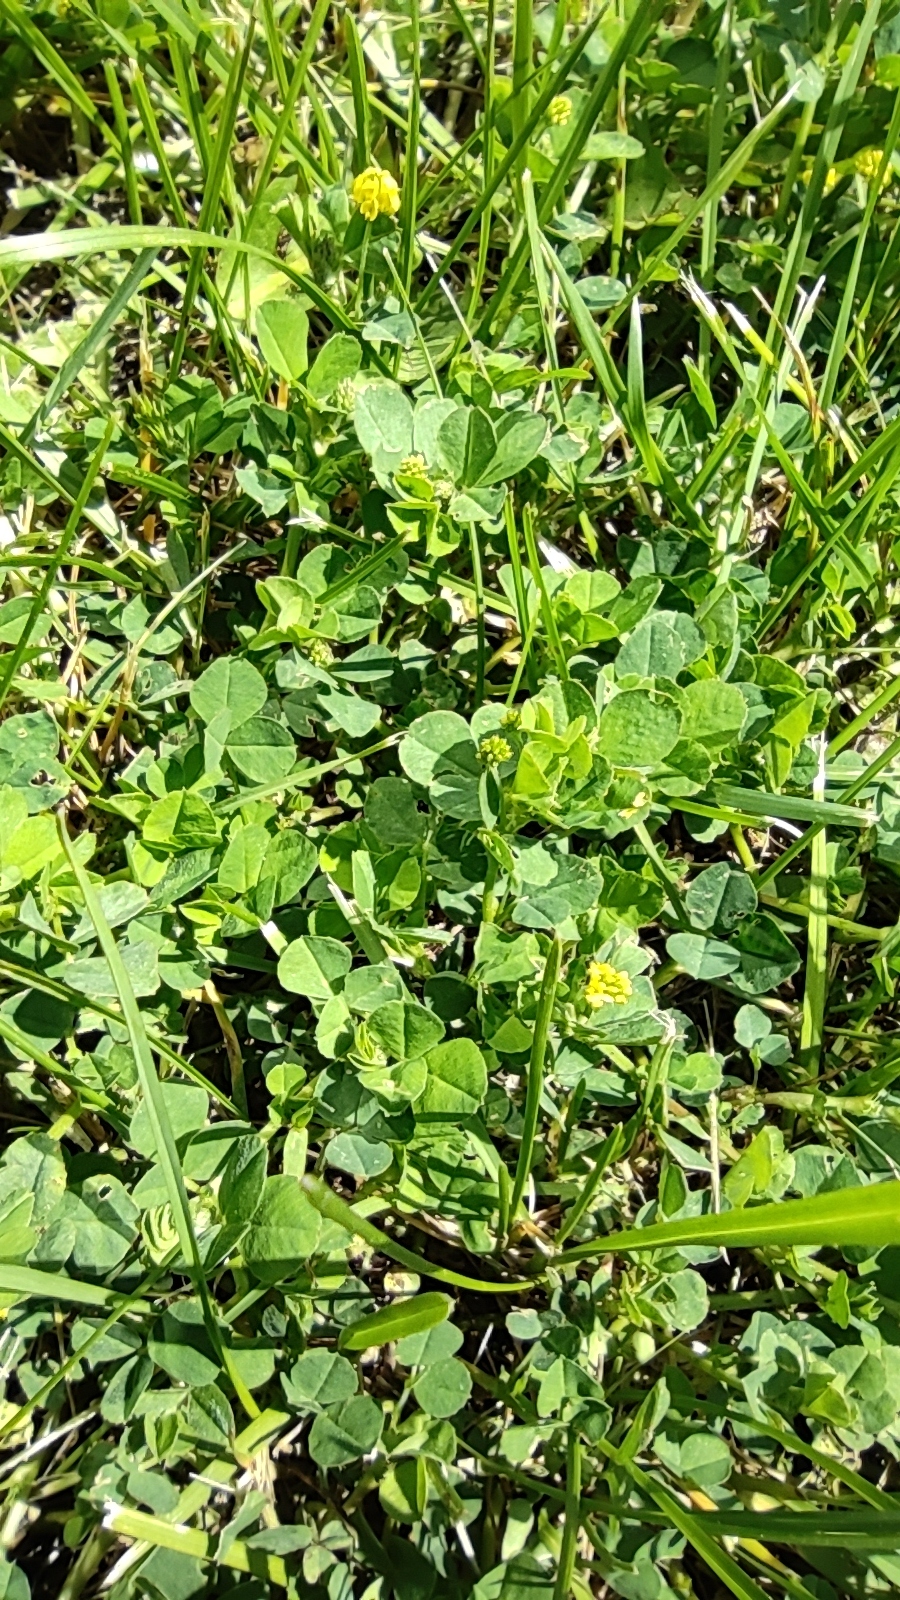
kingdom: Plantae
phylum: Tracheophyta
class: Magnoliopsida
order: Fabales
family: Fabaceae
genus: Medicago
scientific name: Medicago lupulina
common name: Black medick
